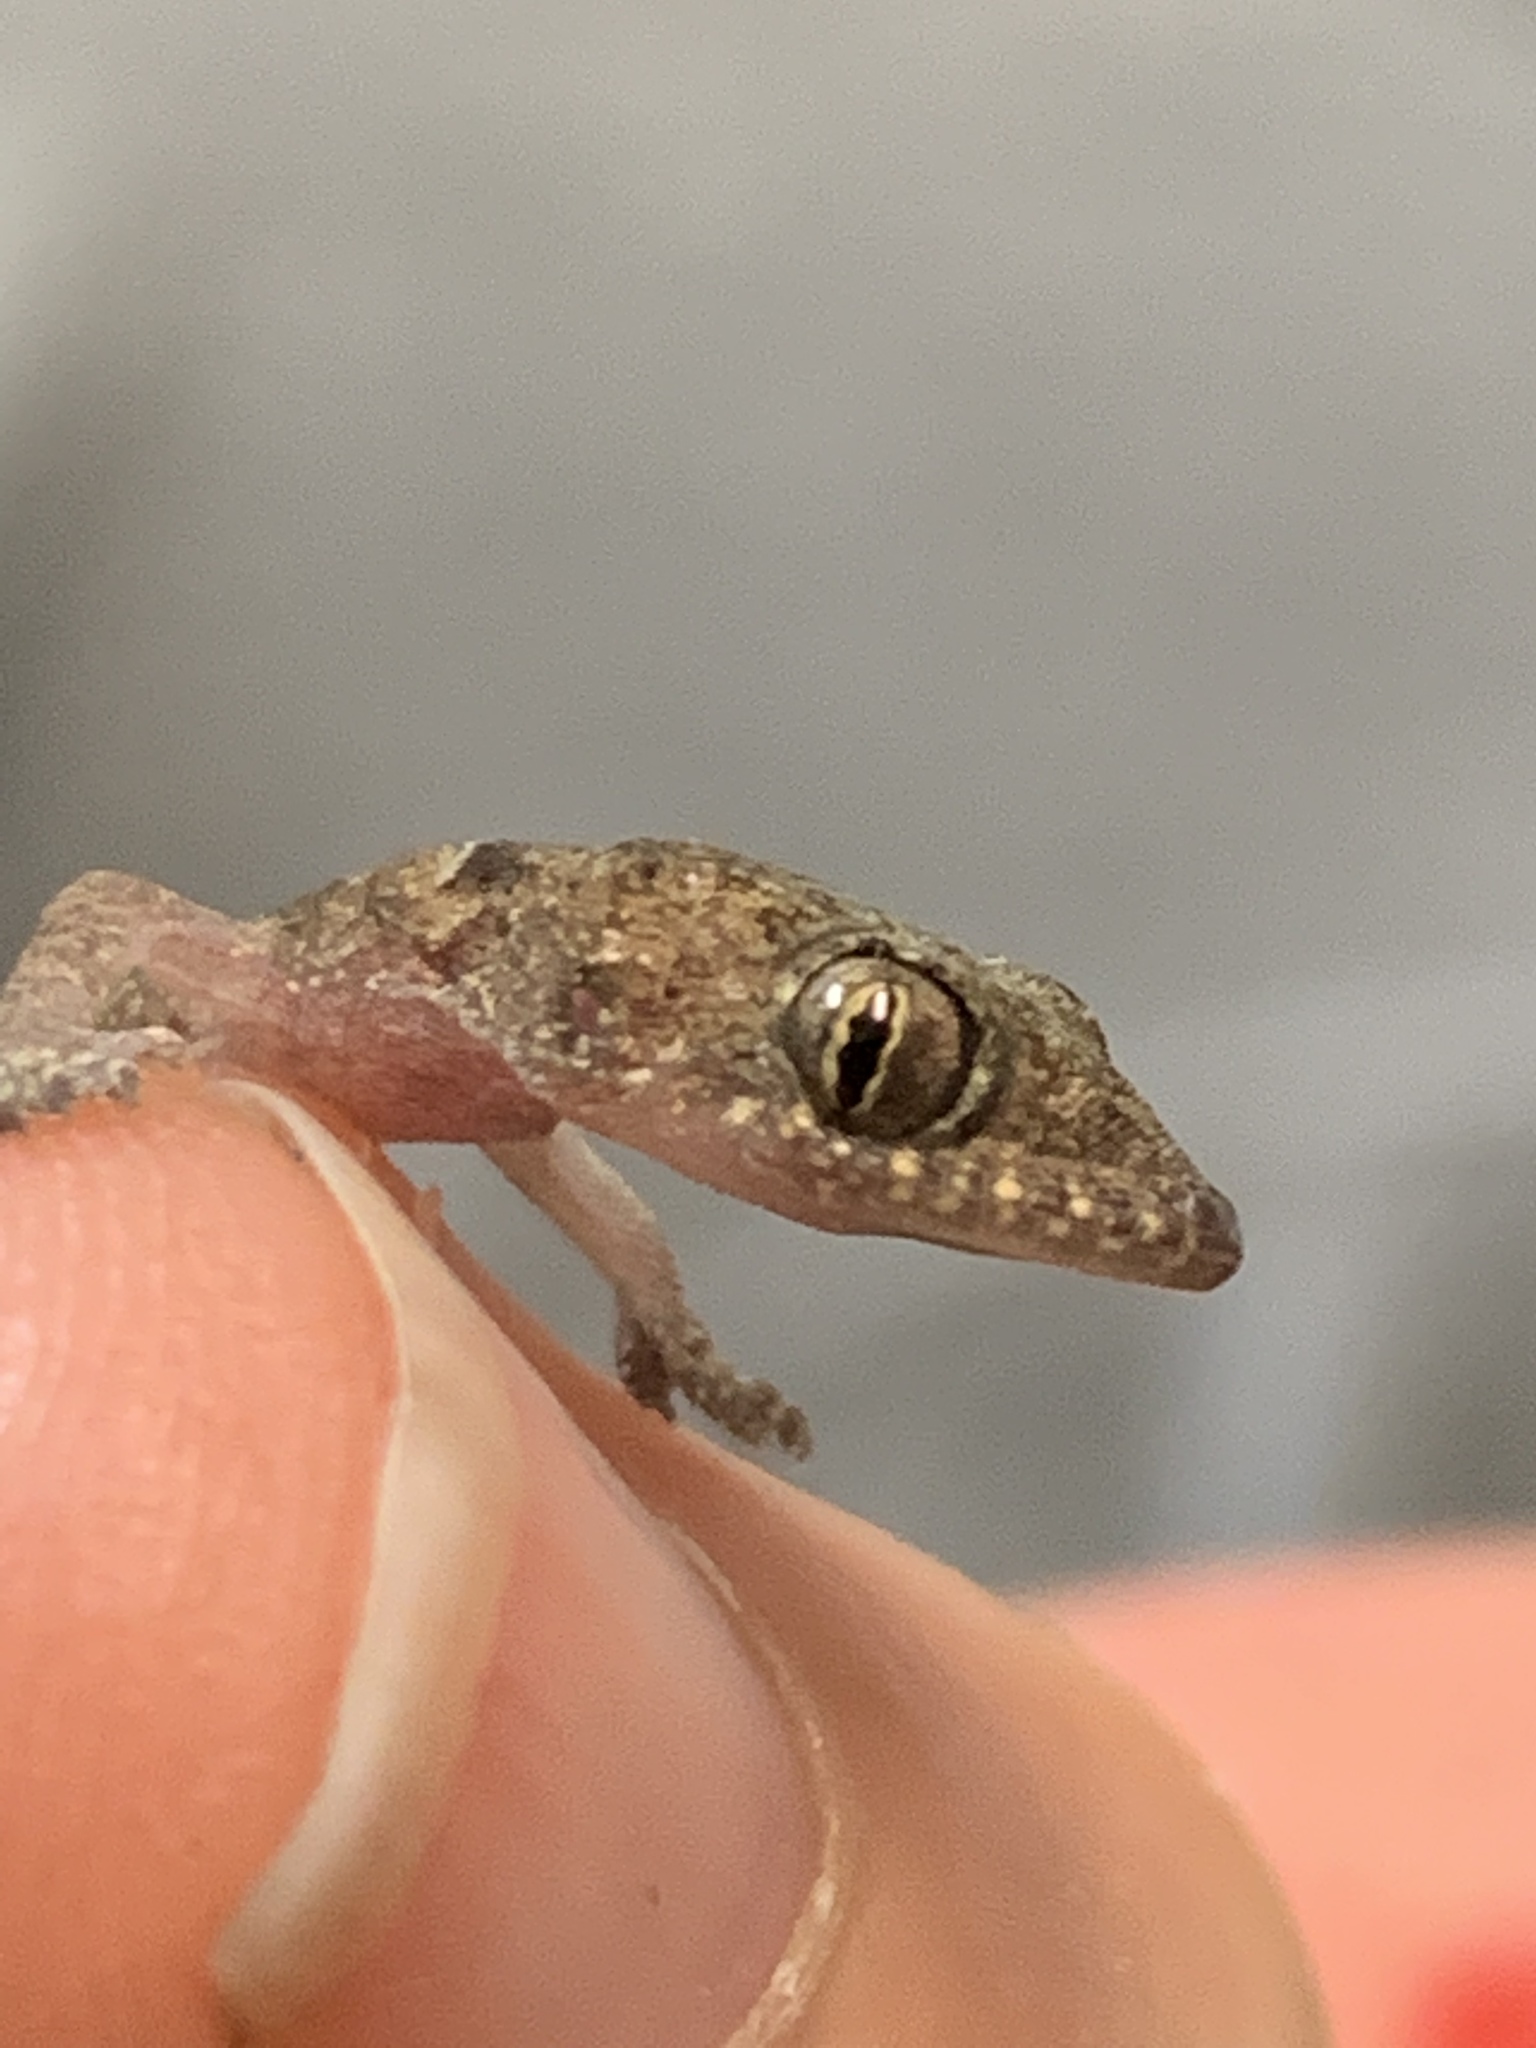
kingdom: Animalia
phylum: Chordata
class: Squamata
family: Gekkonidae
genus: Hemidactylus
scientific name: Hemidactylus mabouia
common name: House gecko
